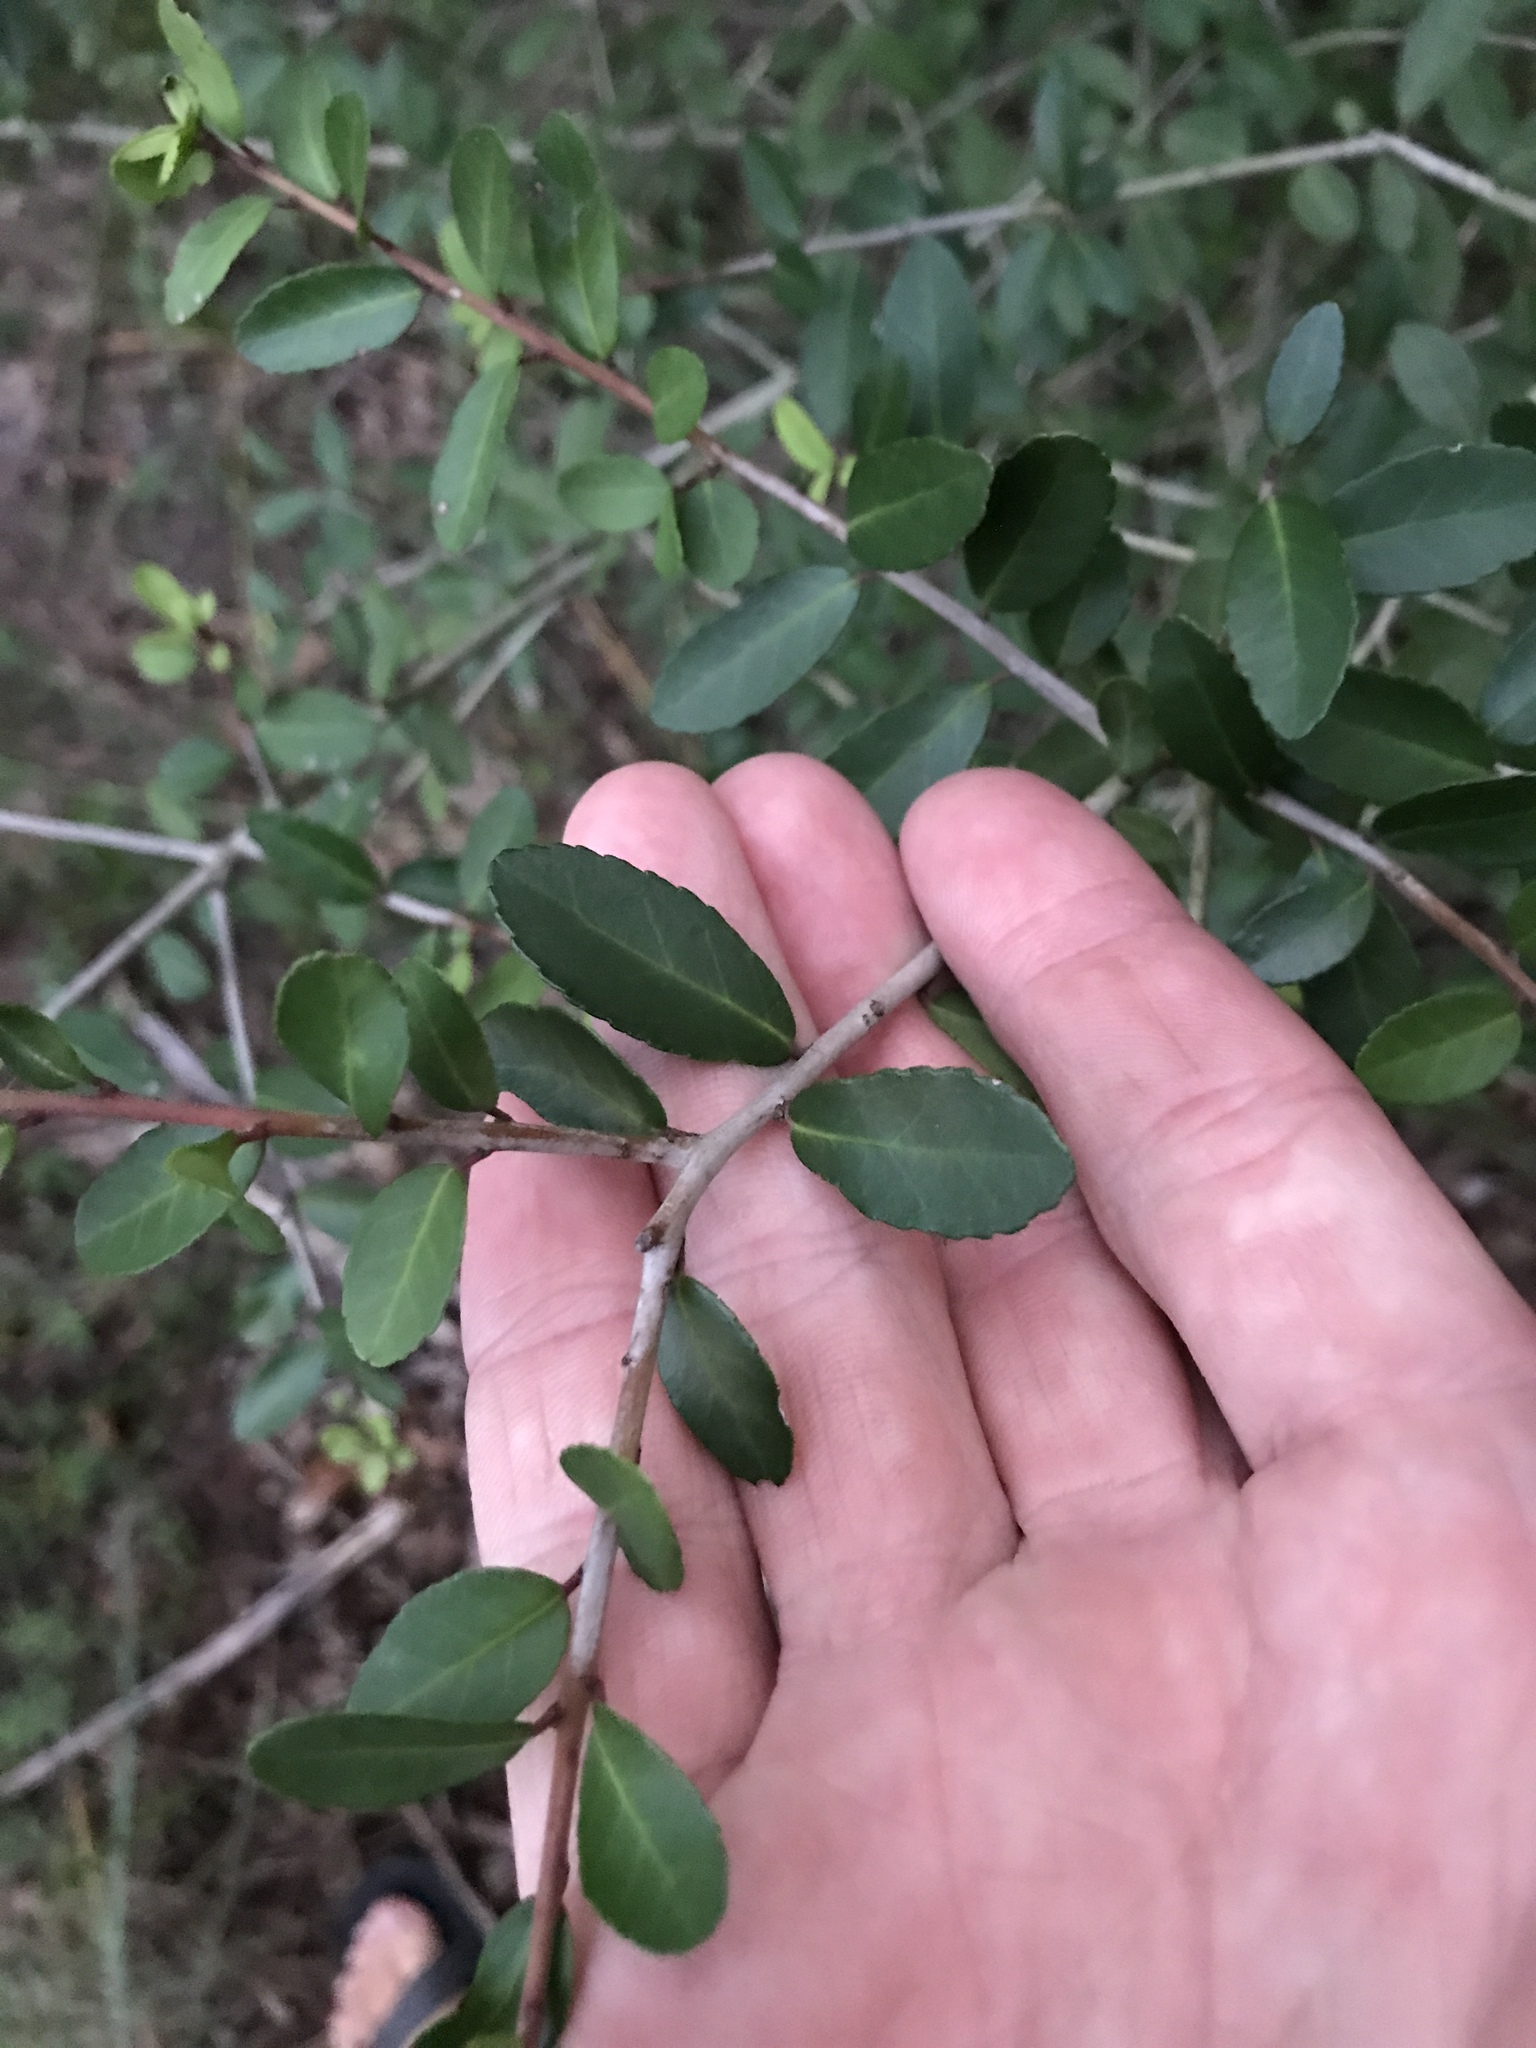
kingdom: Plantae
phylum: Tracheophyta
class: Magnoliopsida
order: Aquifoliales
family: Aquifoliaceae
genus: Ilex
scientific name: Ilex vomitoria
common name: Yaupon holly
